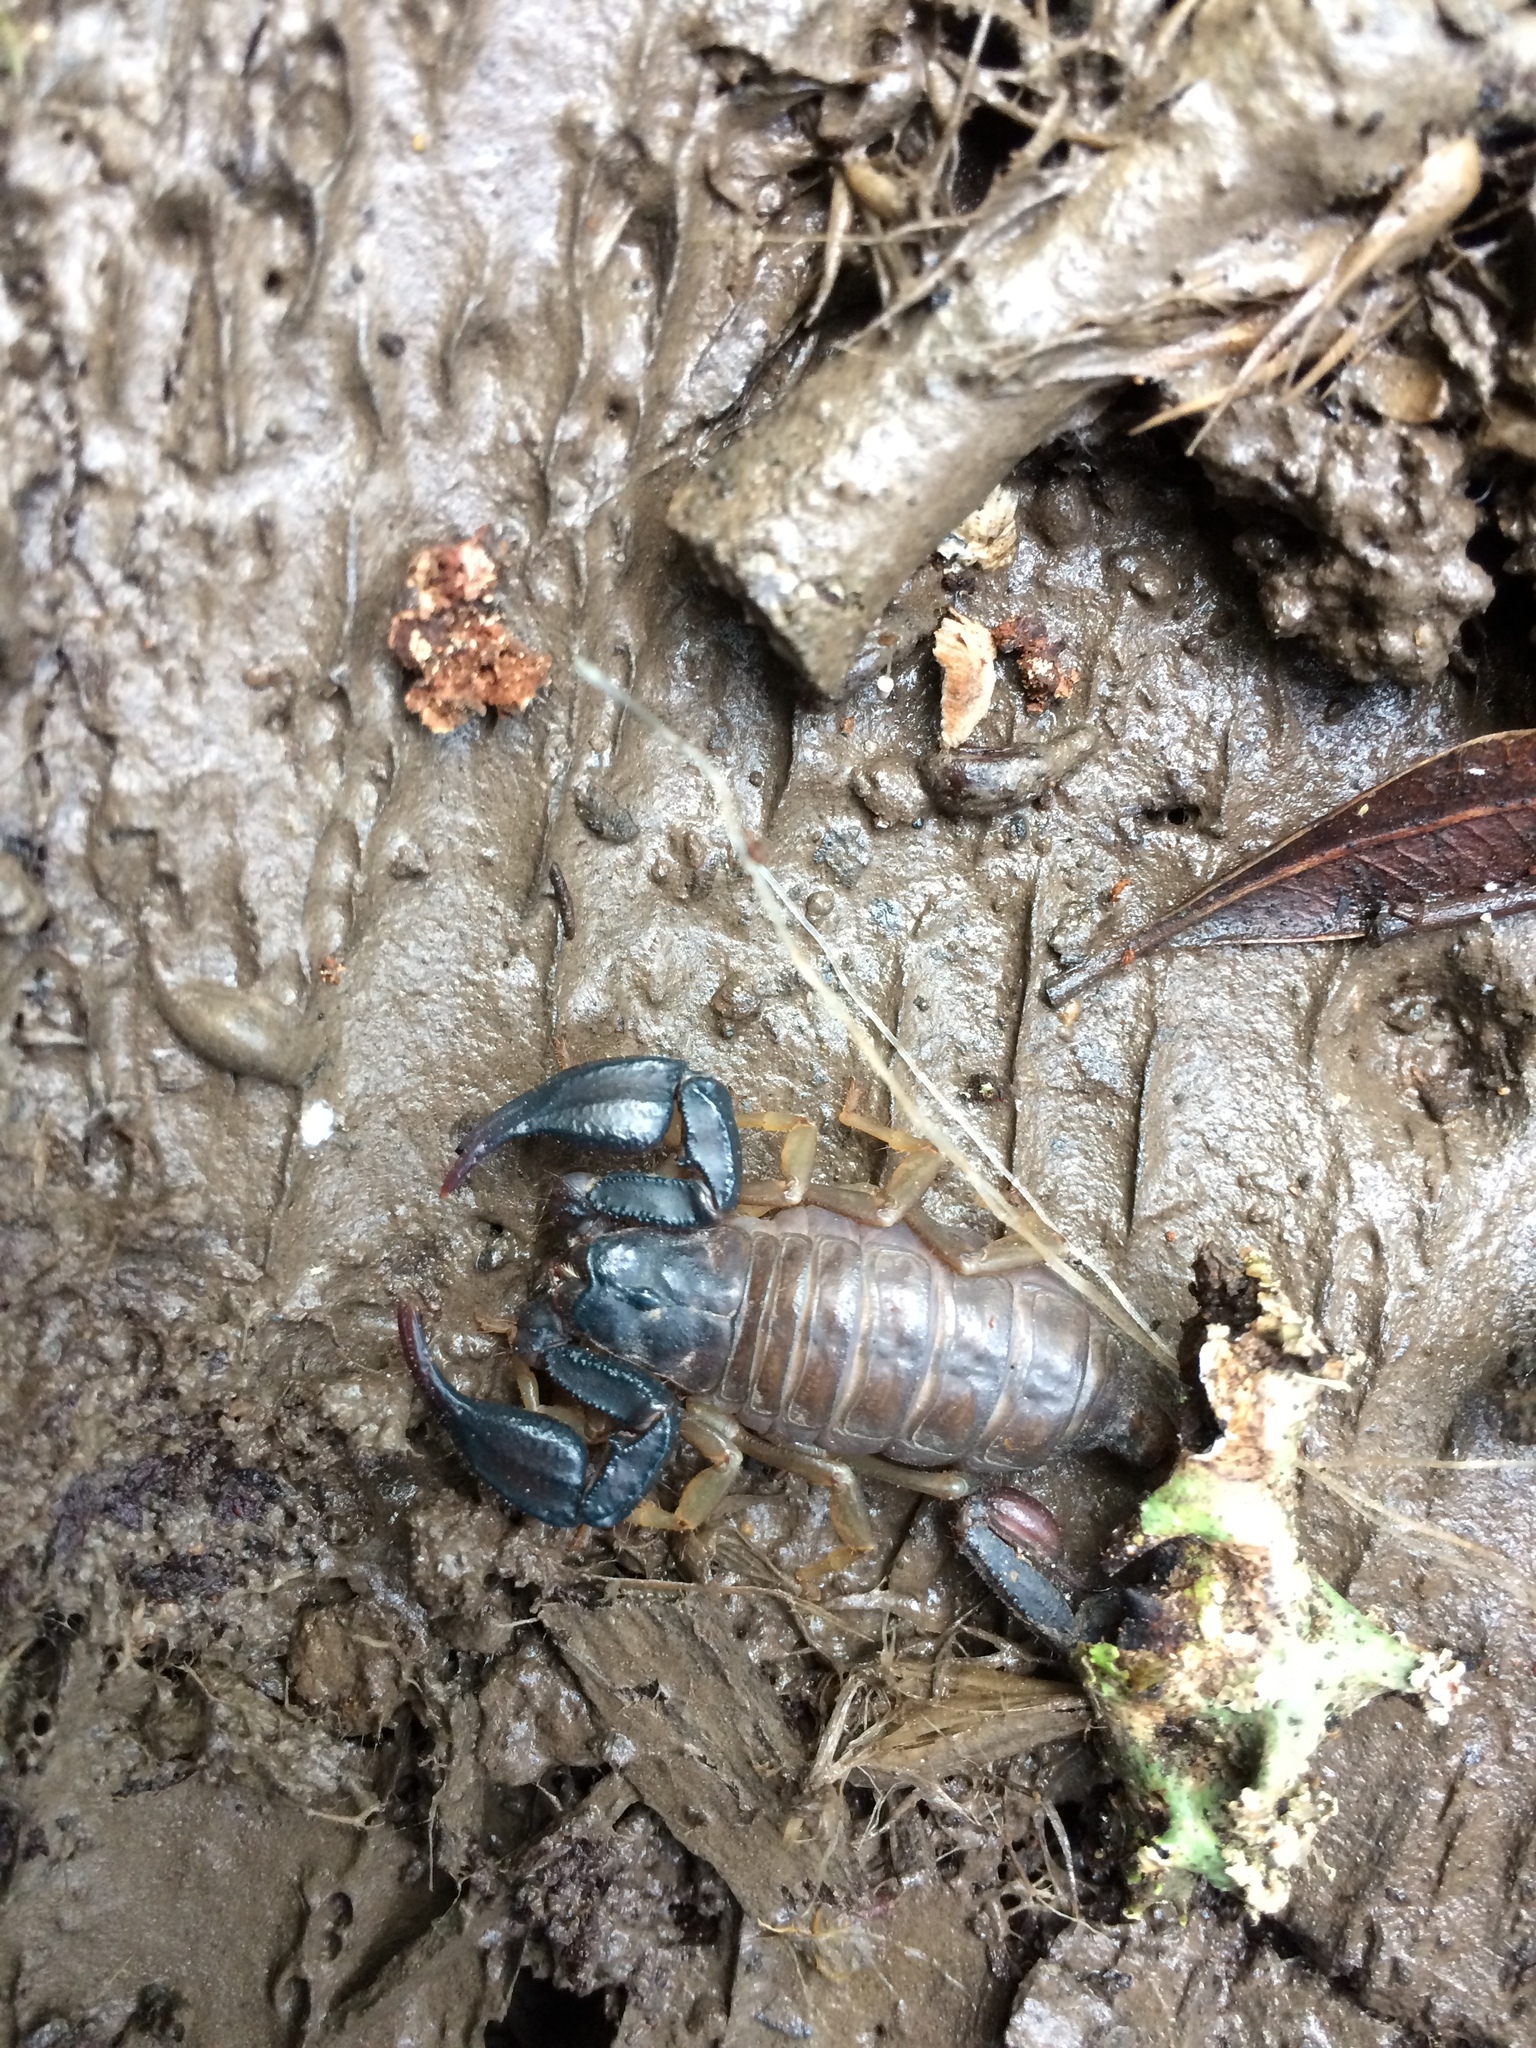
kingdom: Animalia
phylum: Arthropoda
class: Arachnida
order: Scorpiones
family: Chactidae
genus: Uroctonus
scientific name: Uroctonus mordax
